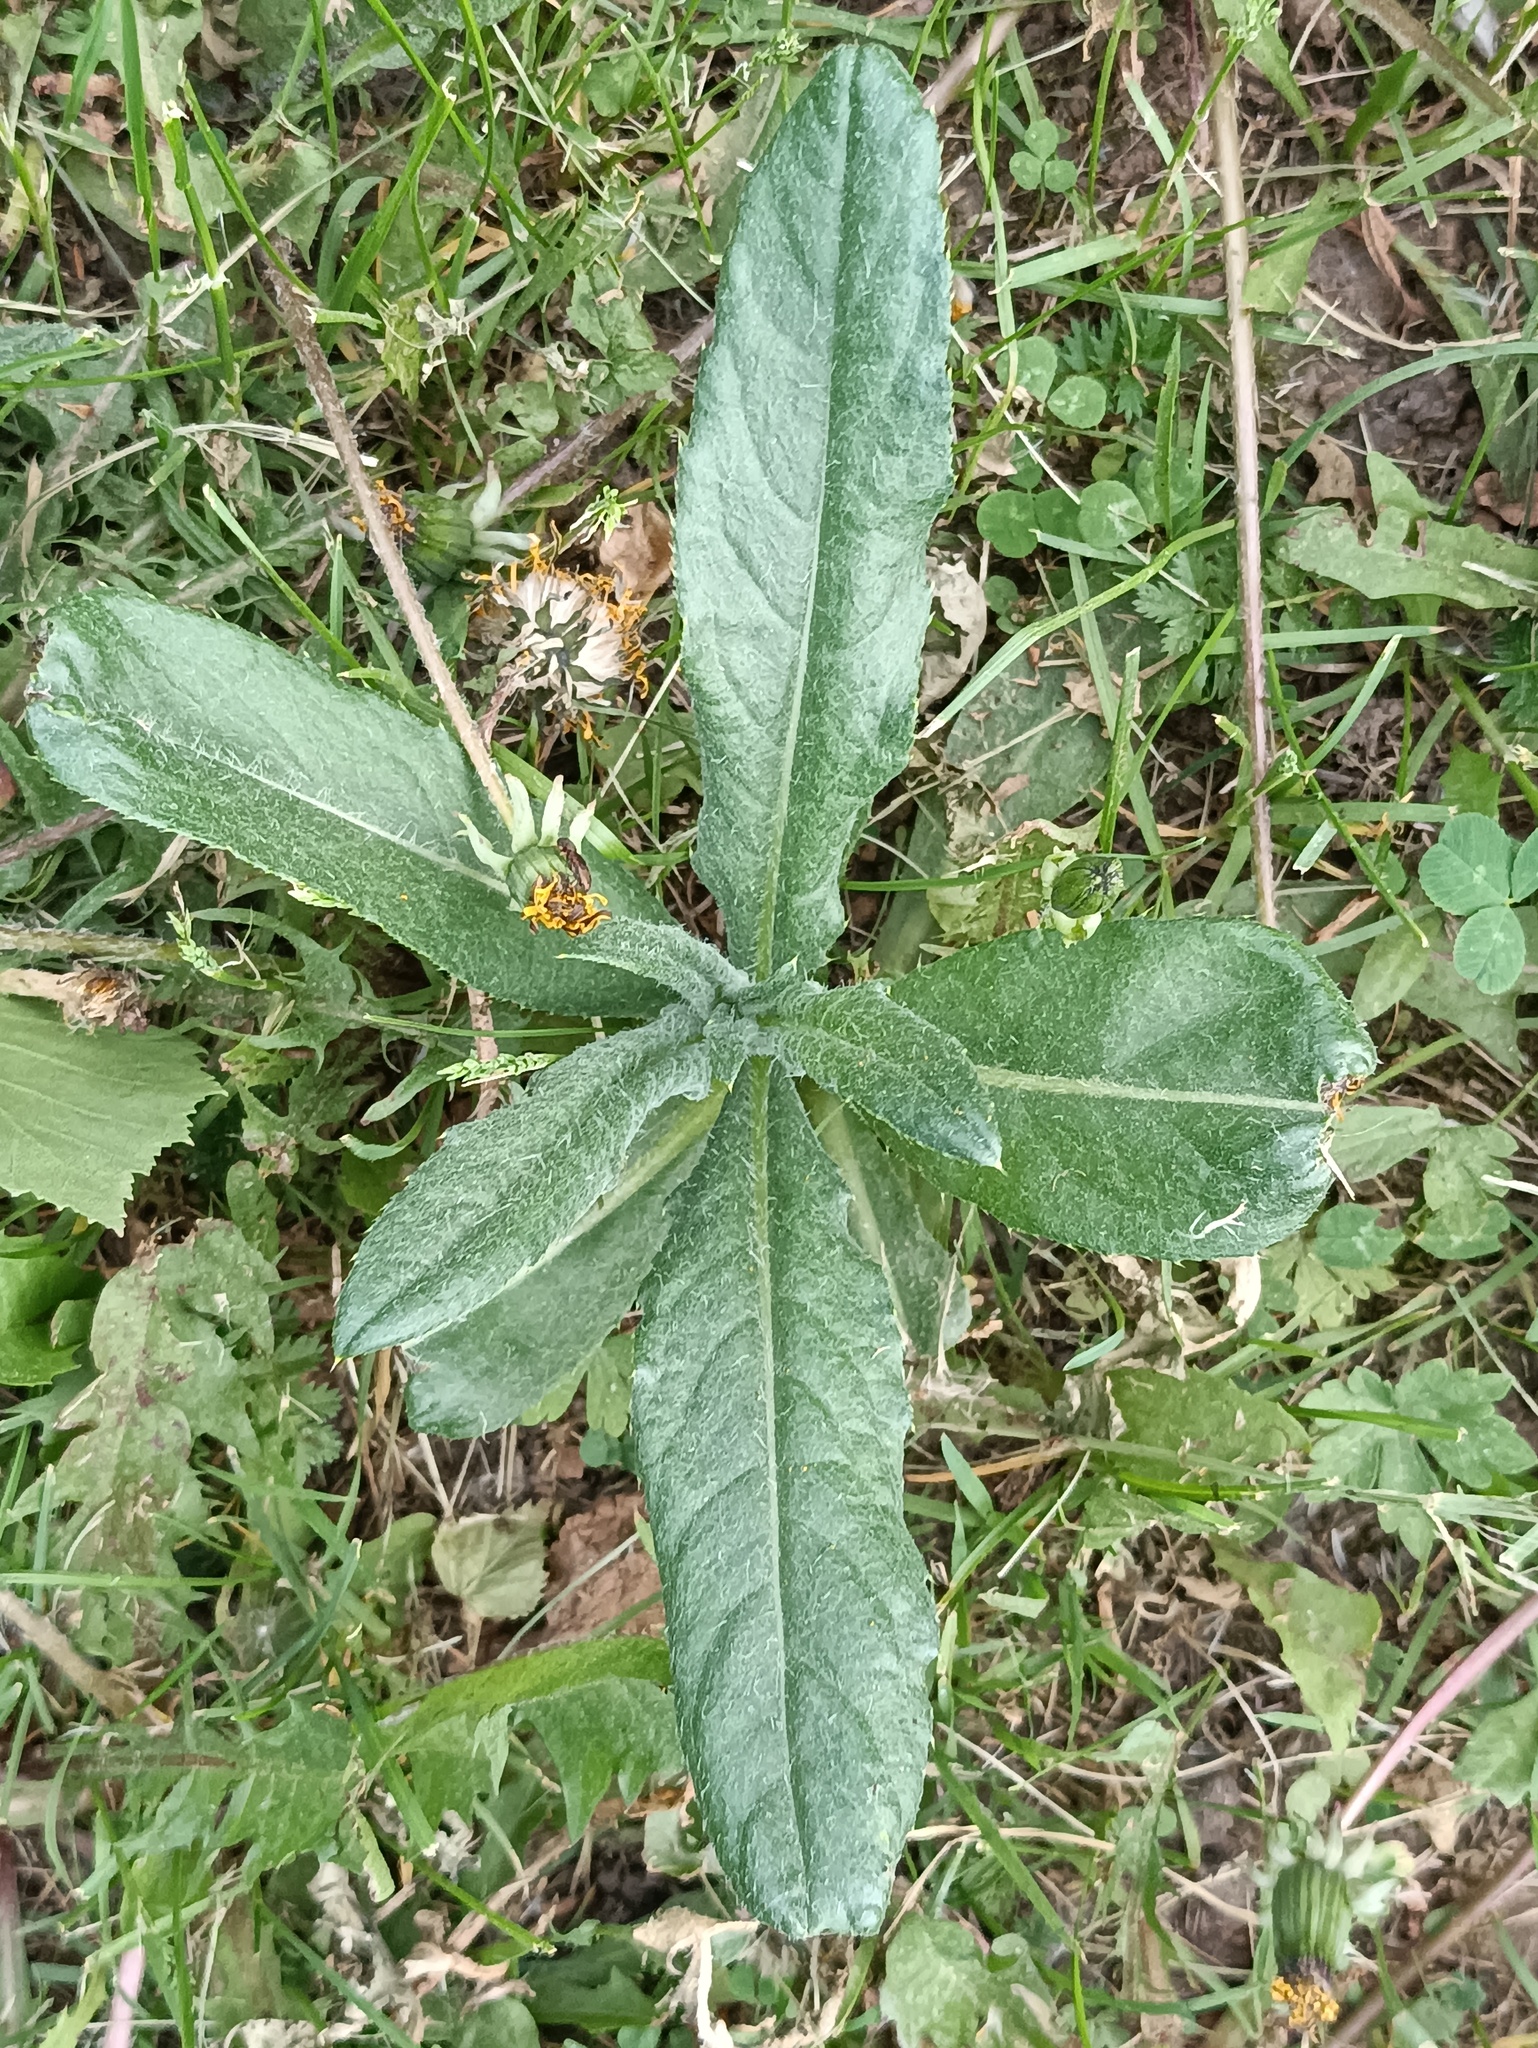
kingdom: Plantae
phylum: Tracheophyta
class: Magnoliopsida
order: Asterales
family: Asteraceae
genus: Cirsium
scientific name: Cirsium arvense
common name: Creeping thistle
